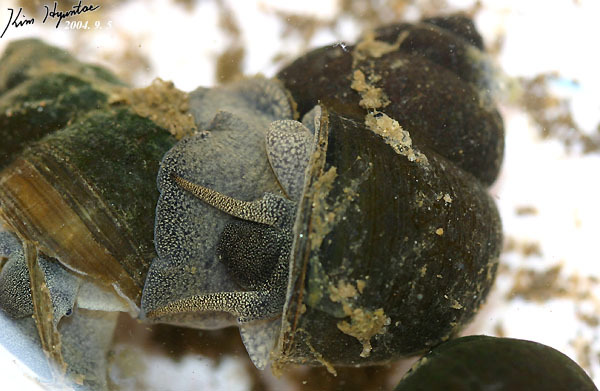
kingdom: Animalia
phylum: Mollusca
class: Gastropoda
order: Architaenioglossa
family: Viviparidae
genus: Cipangopaludina
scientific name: Cipangopaludina chinensis
